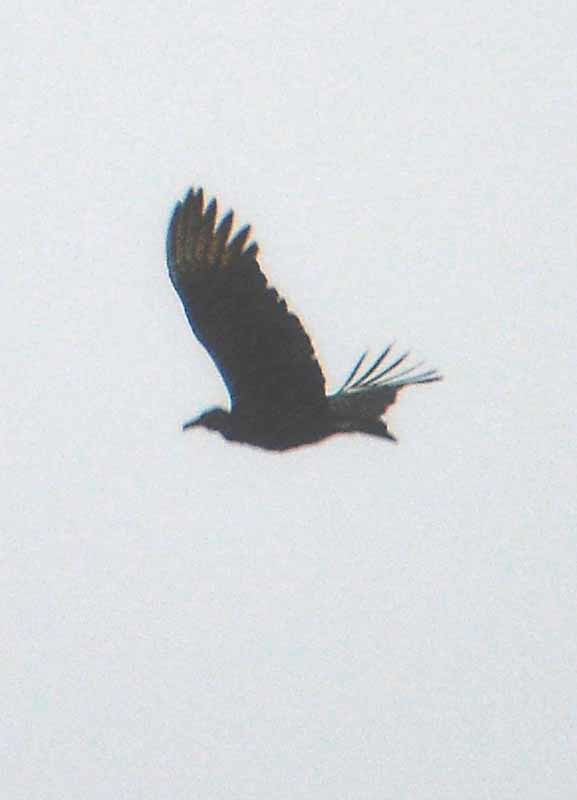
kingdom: Animalia
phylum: Chordata
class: Aves
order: Accipitriformes
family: Cathartidae
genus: Coragyps
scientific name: Coragyps atratus
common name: Black vulture
